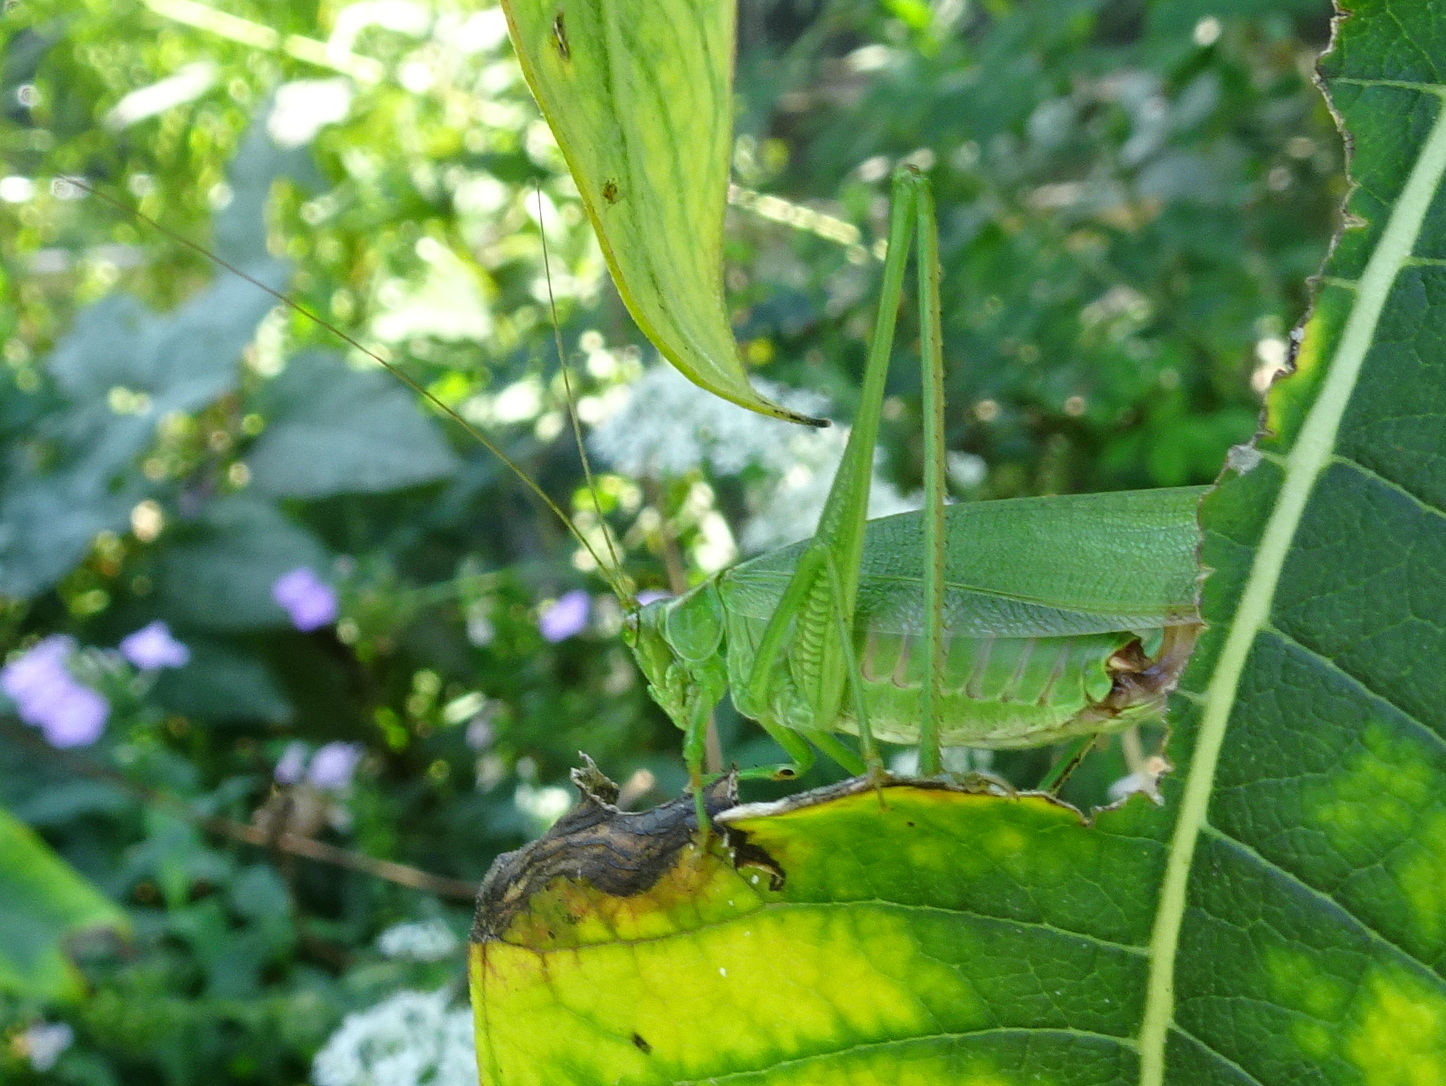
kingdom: Animalia
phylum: Arthropoda
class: Insecta
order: Orthoptera
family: Tettigoniidae
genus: Scudderia
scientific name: Scudderia furcata
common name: Fork-tailed bush katydid
